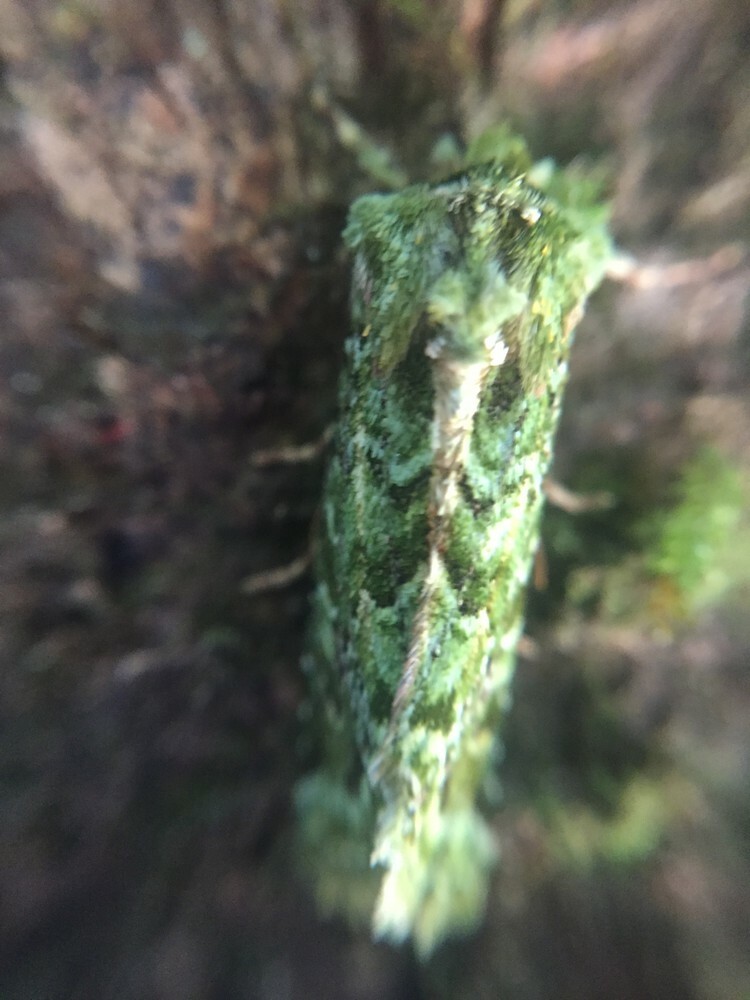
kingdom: Animalia
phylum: Arthropoda
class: Insecta
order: Lepidoptera
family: Noctuidae
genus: Feredayia
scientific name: Feredayia grammosa
